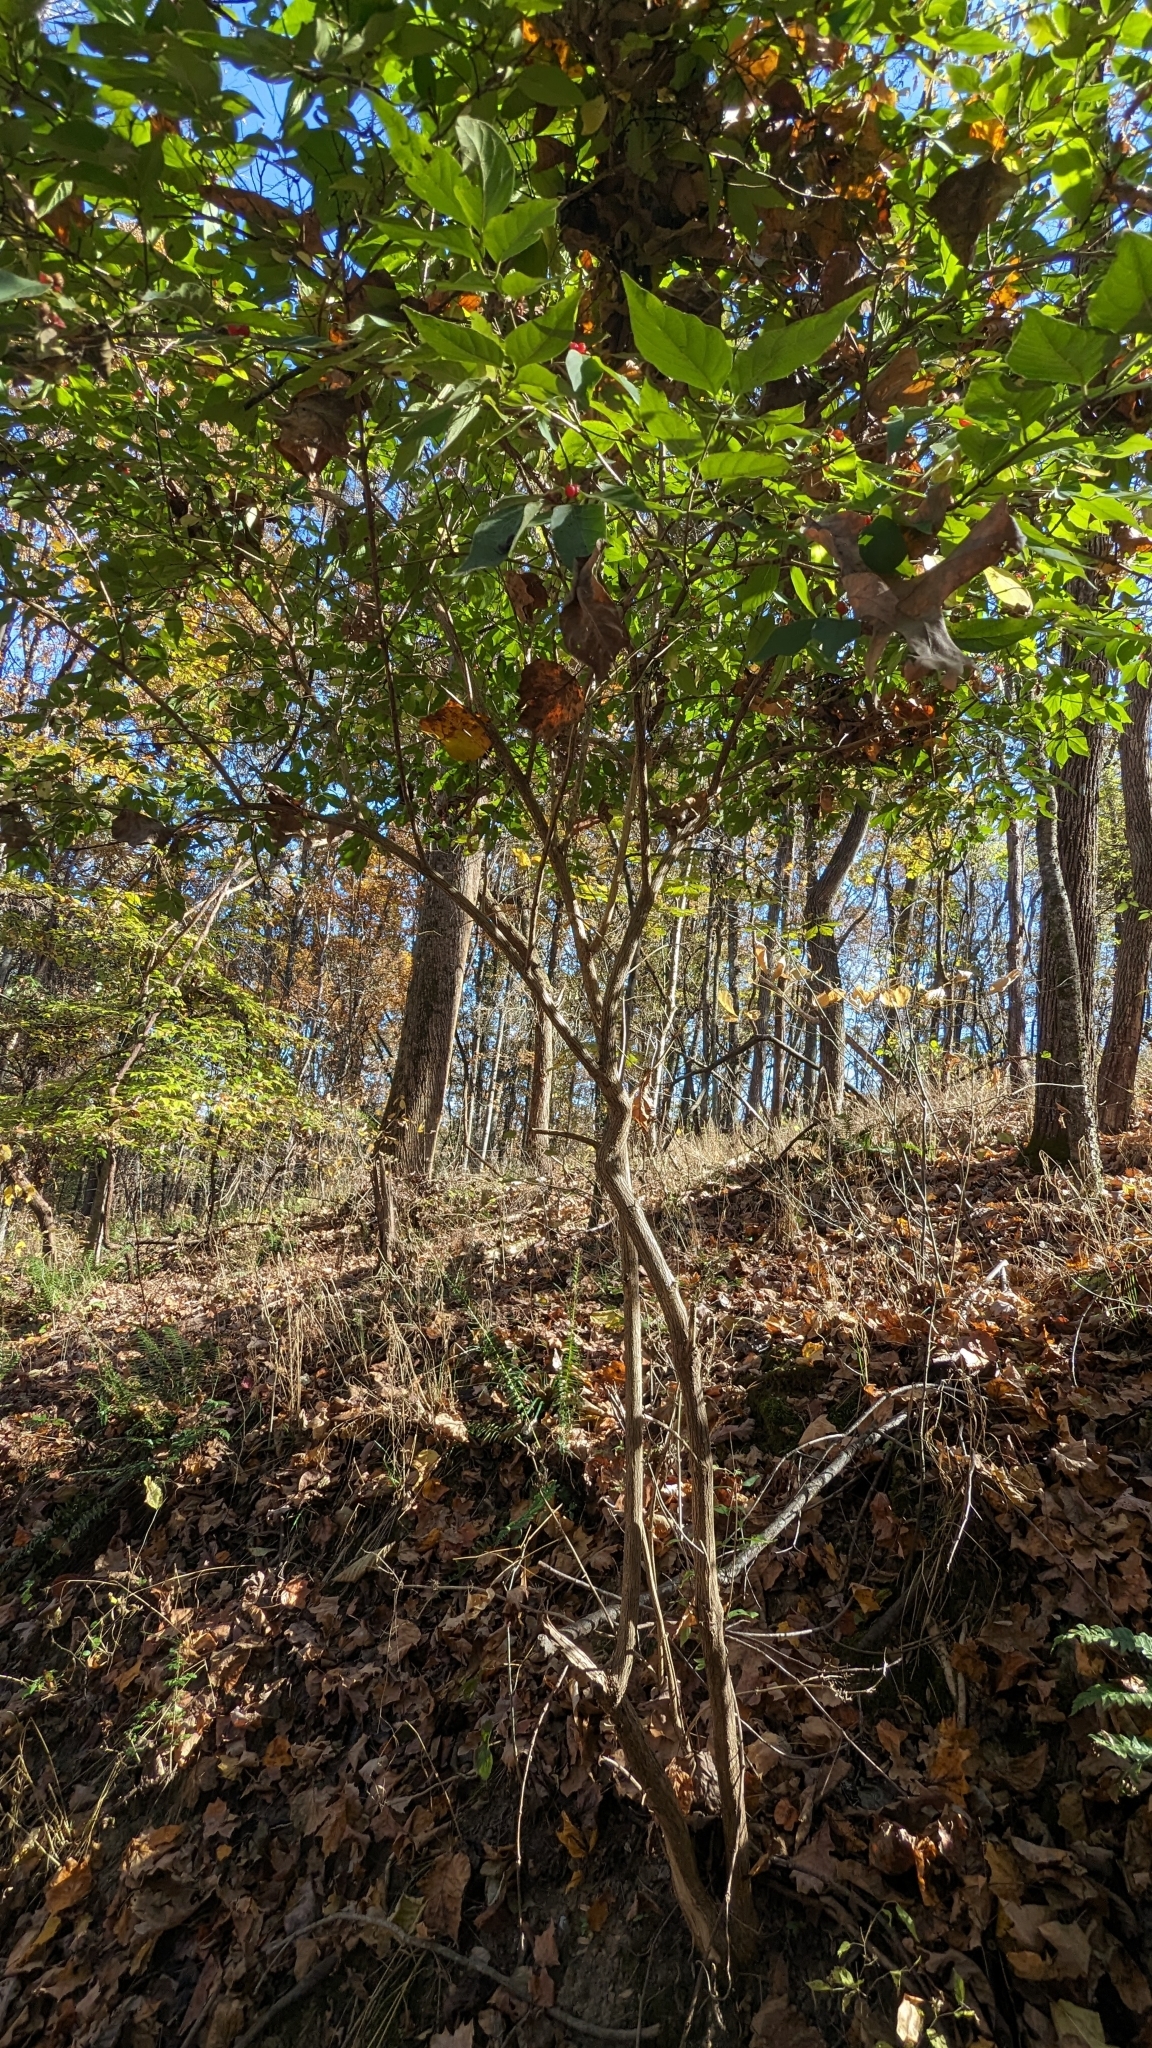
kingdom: Plantae
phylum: Tracheophyta
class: Magnoliopsida
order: Dipsacales
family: Caprifoliaceae
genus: Lonicera
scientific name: Lonicera maackii
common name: Amur honeysuckle
